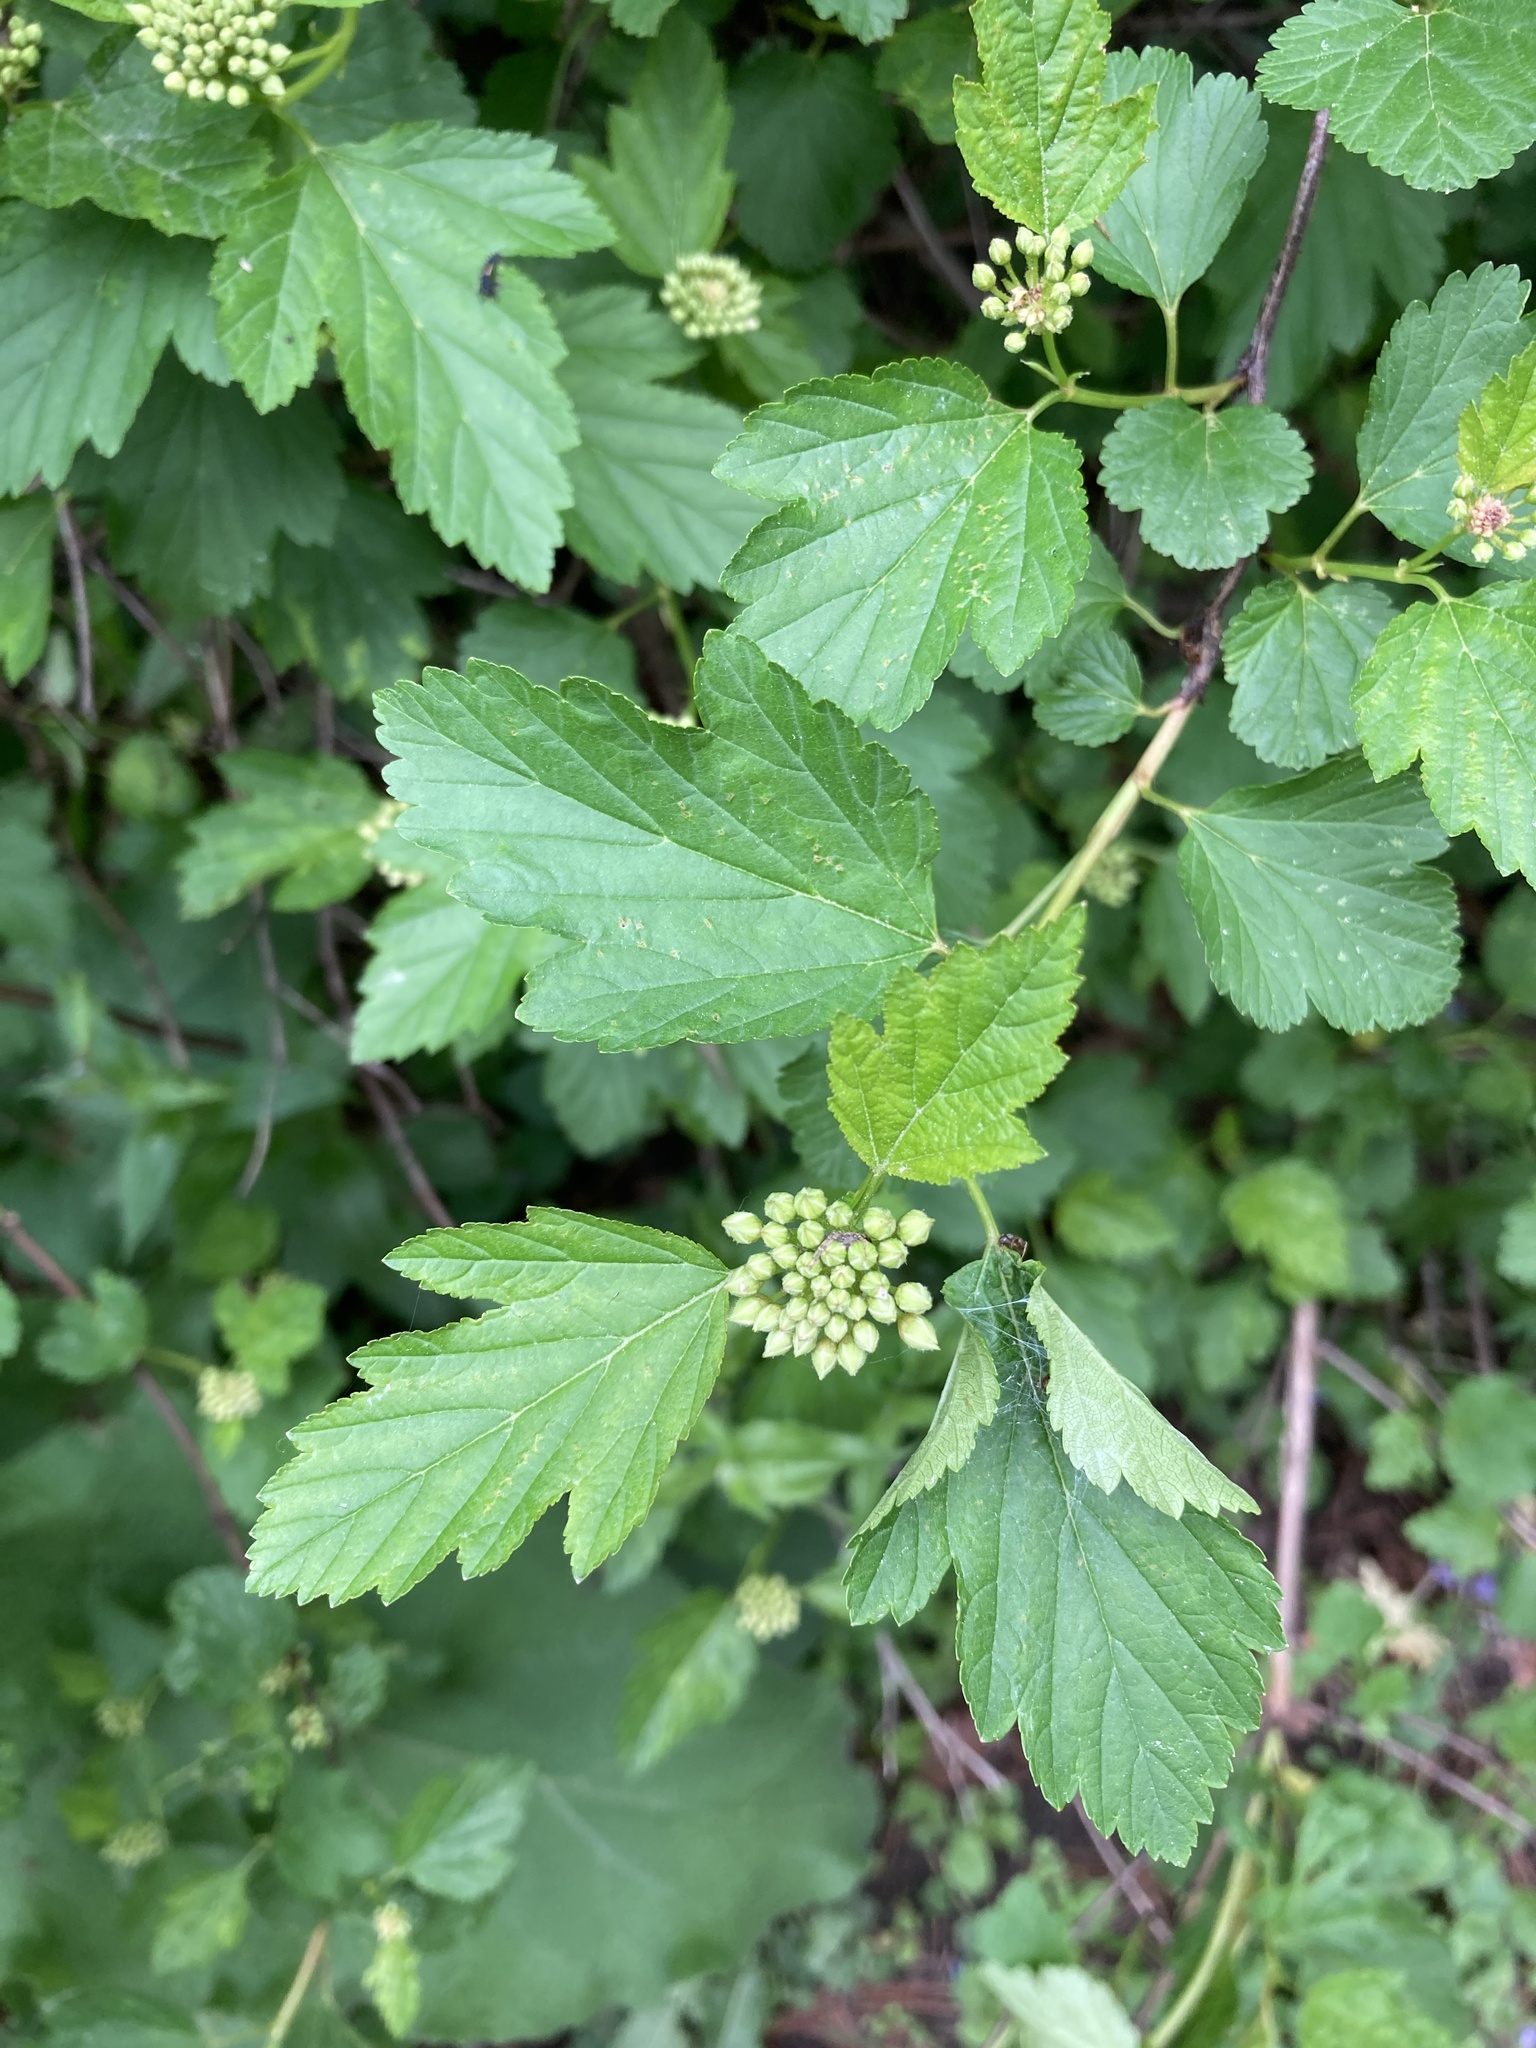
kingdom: Plantae
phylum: Tracheophyta
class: Magnoliopsida
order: Rosales
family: Rosaceae
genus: Physocarpus
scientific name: Physocarpus opulifolius
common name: Ninebark
